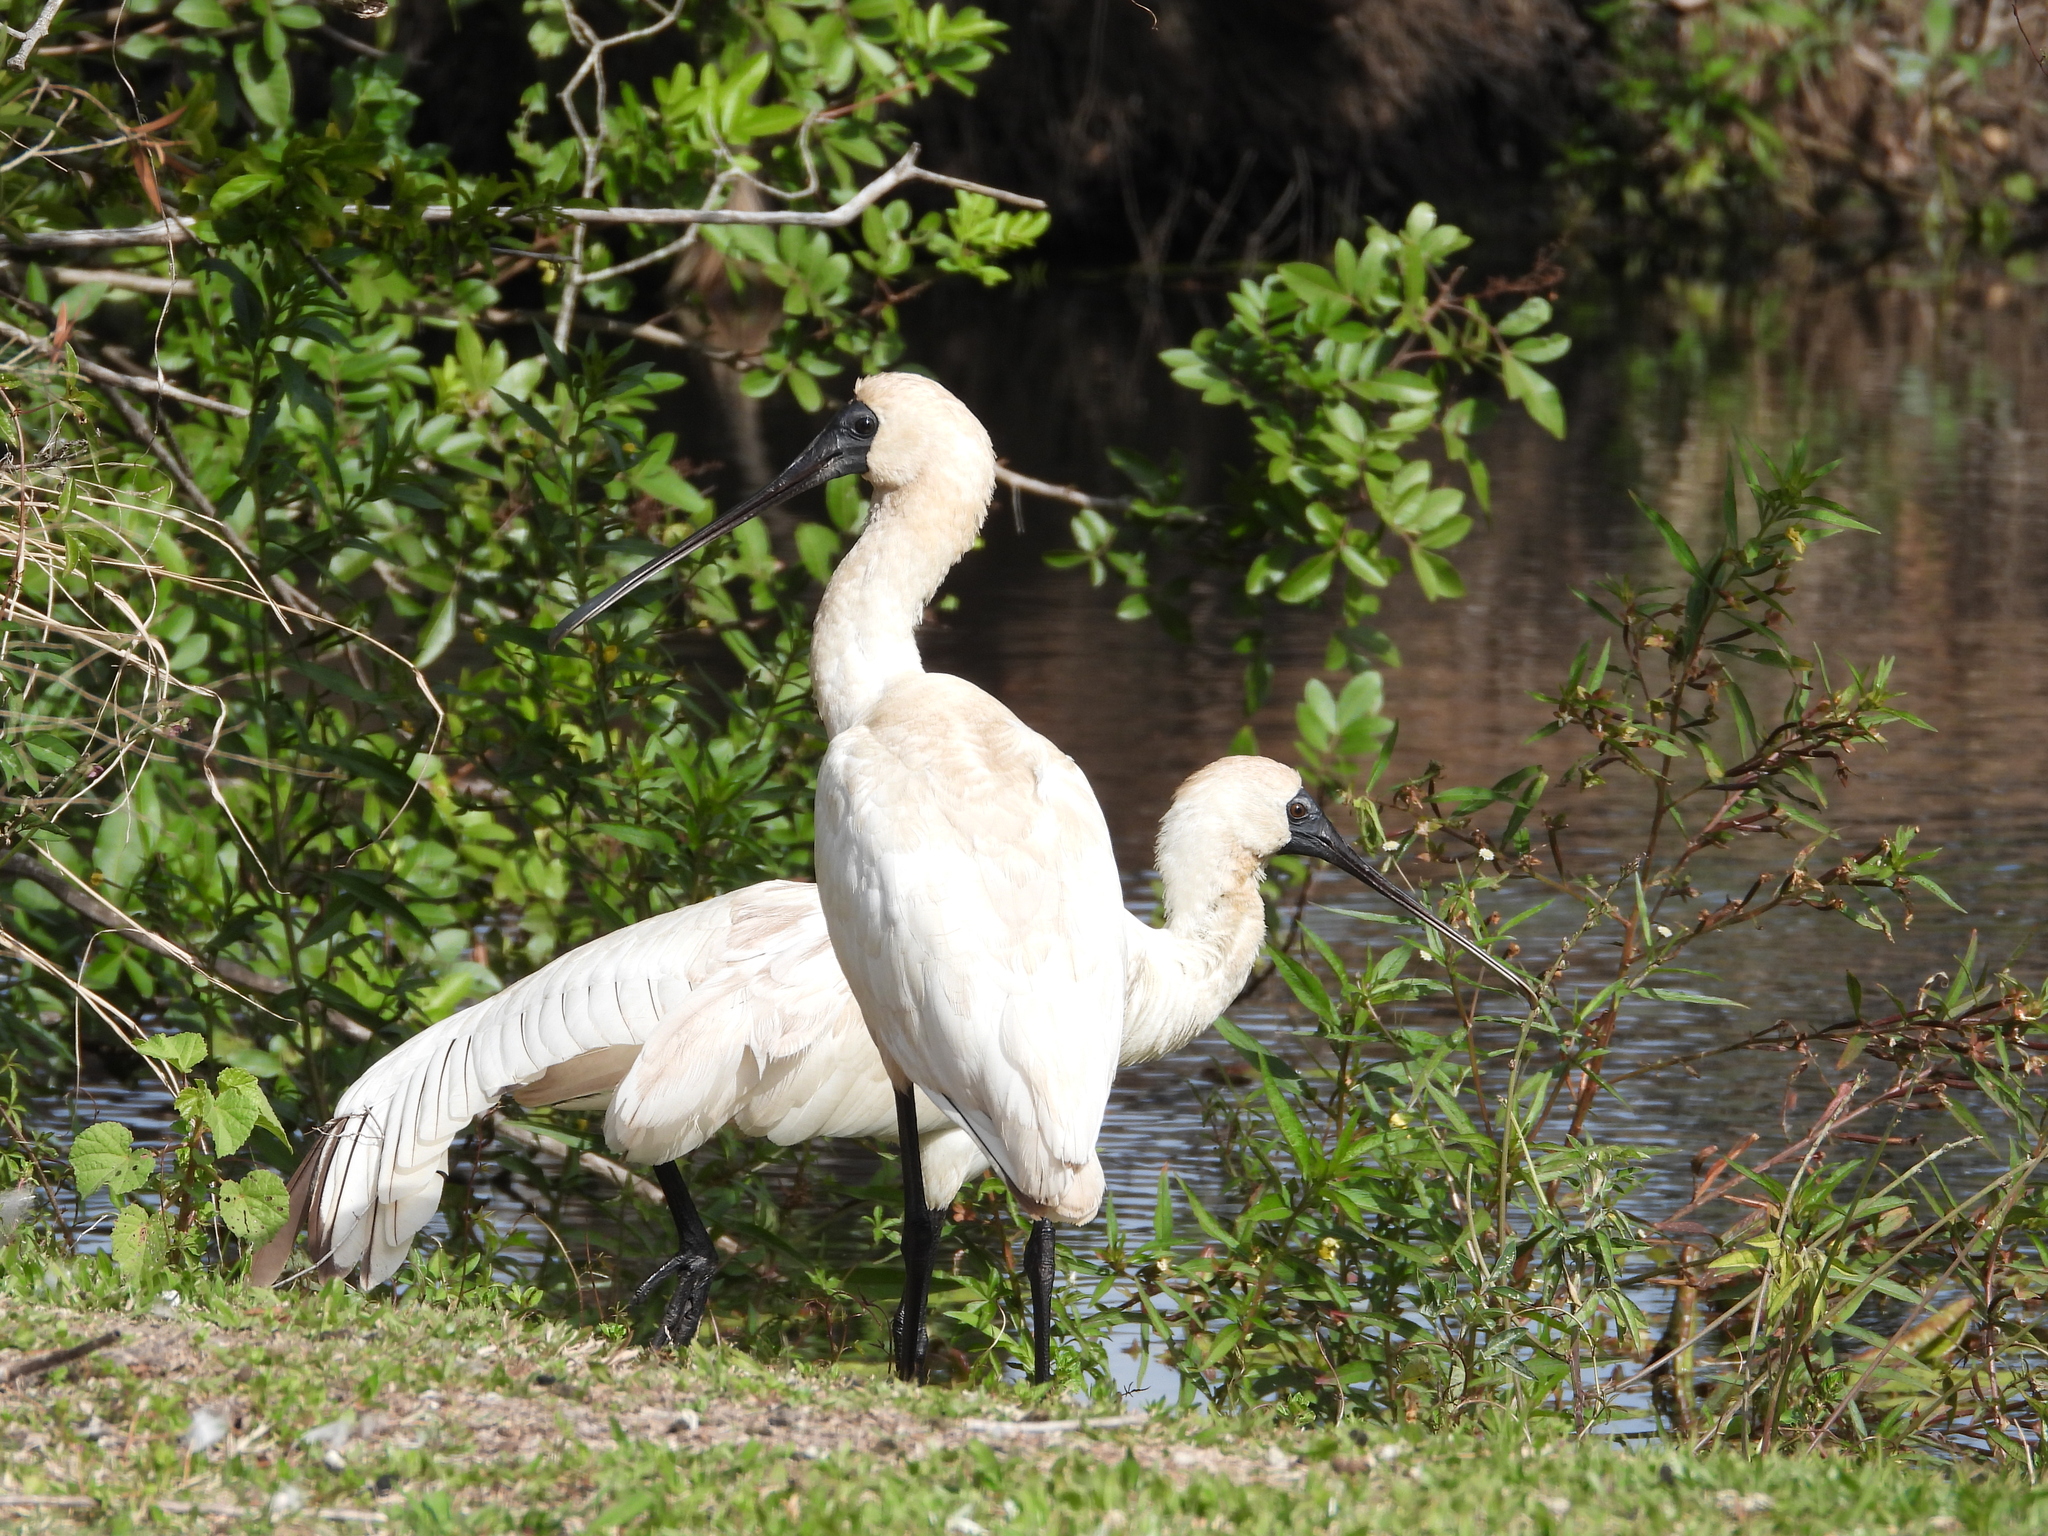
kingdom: Animalia
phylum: Chordata
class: Aves
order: Pelecaniformes
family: Threskiornithidae
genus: Platalea
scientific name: Platalea regia
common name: Royal spoonbill
